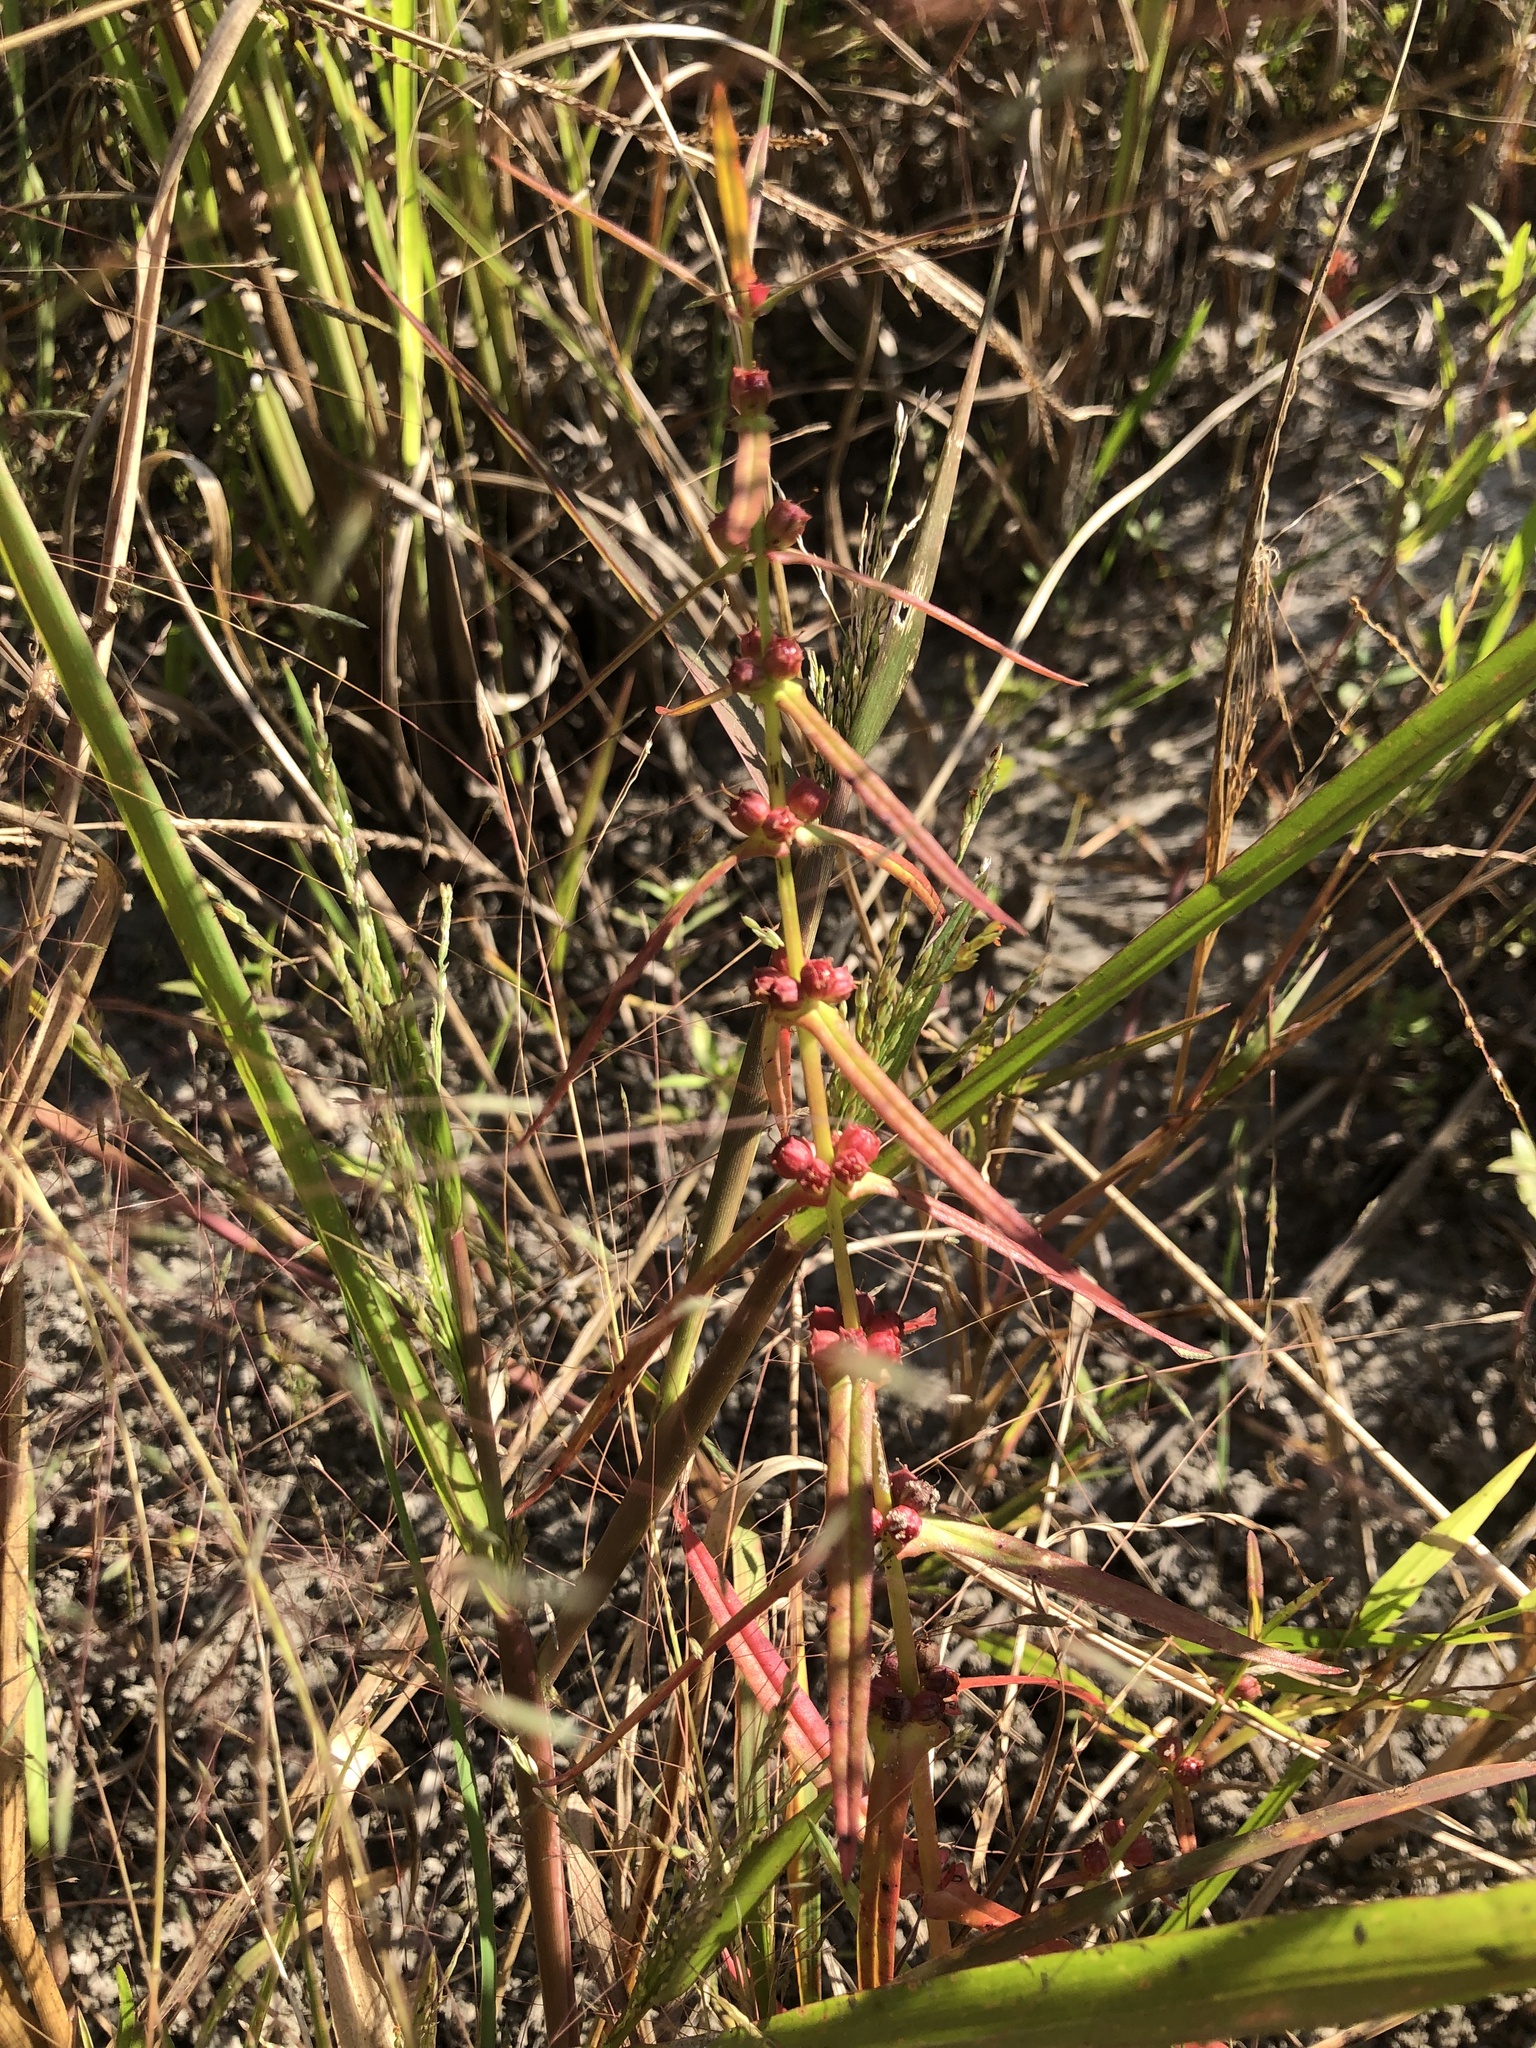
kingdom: Plantae
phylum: Tracheophyta
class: Magnoliopsida
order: Myrtales
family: Lythraceae
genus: Ammannia
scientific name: Ammannia coccinea
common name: Valley redstem
